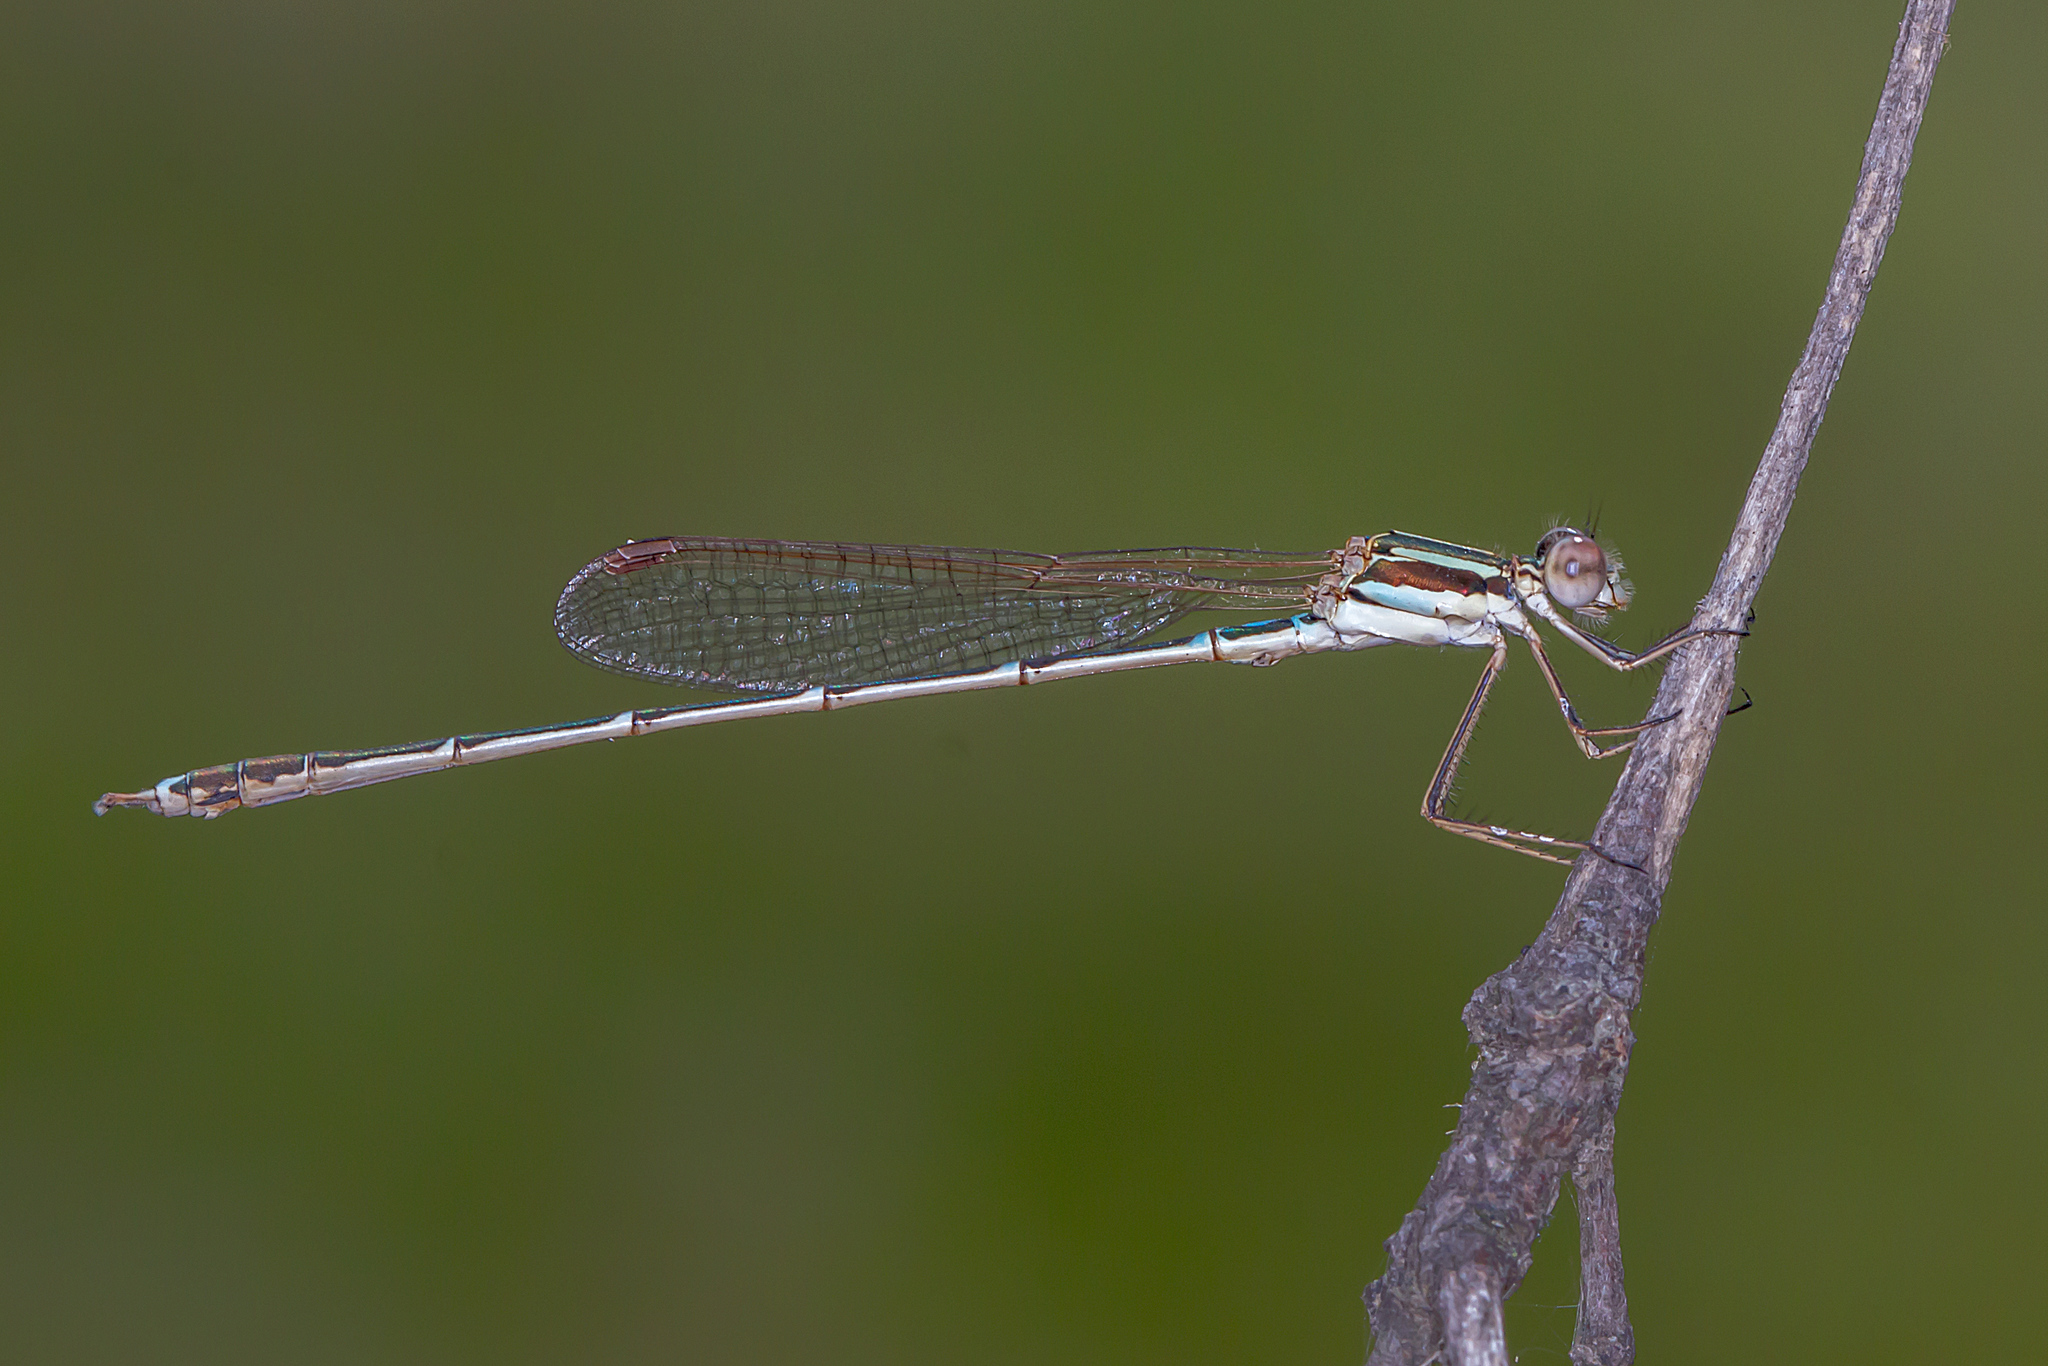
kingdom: Animalia
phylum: Arthropoda
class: Insecta
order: Odonata
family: Lestidae
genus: Austrolestes
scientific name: Austrolestes analis
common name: Slender ringtail
